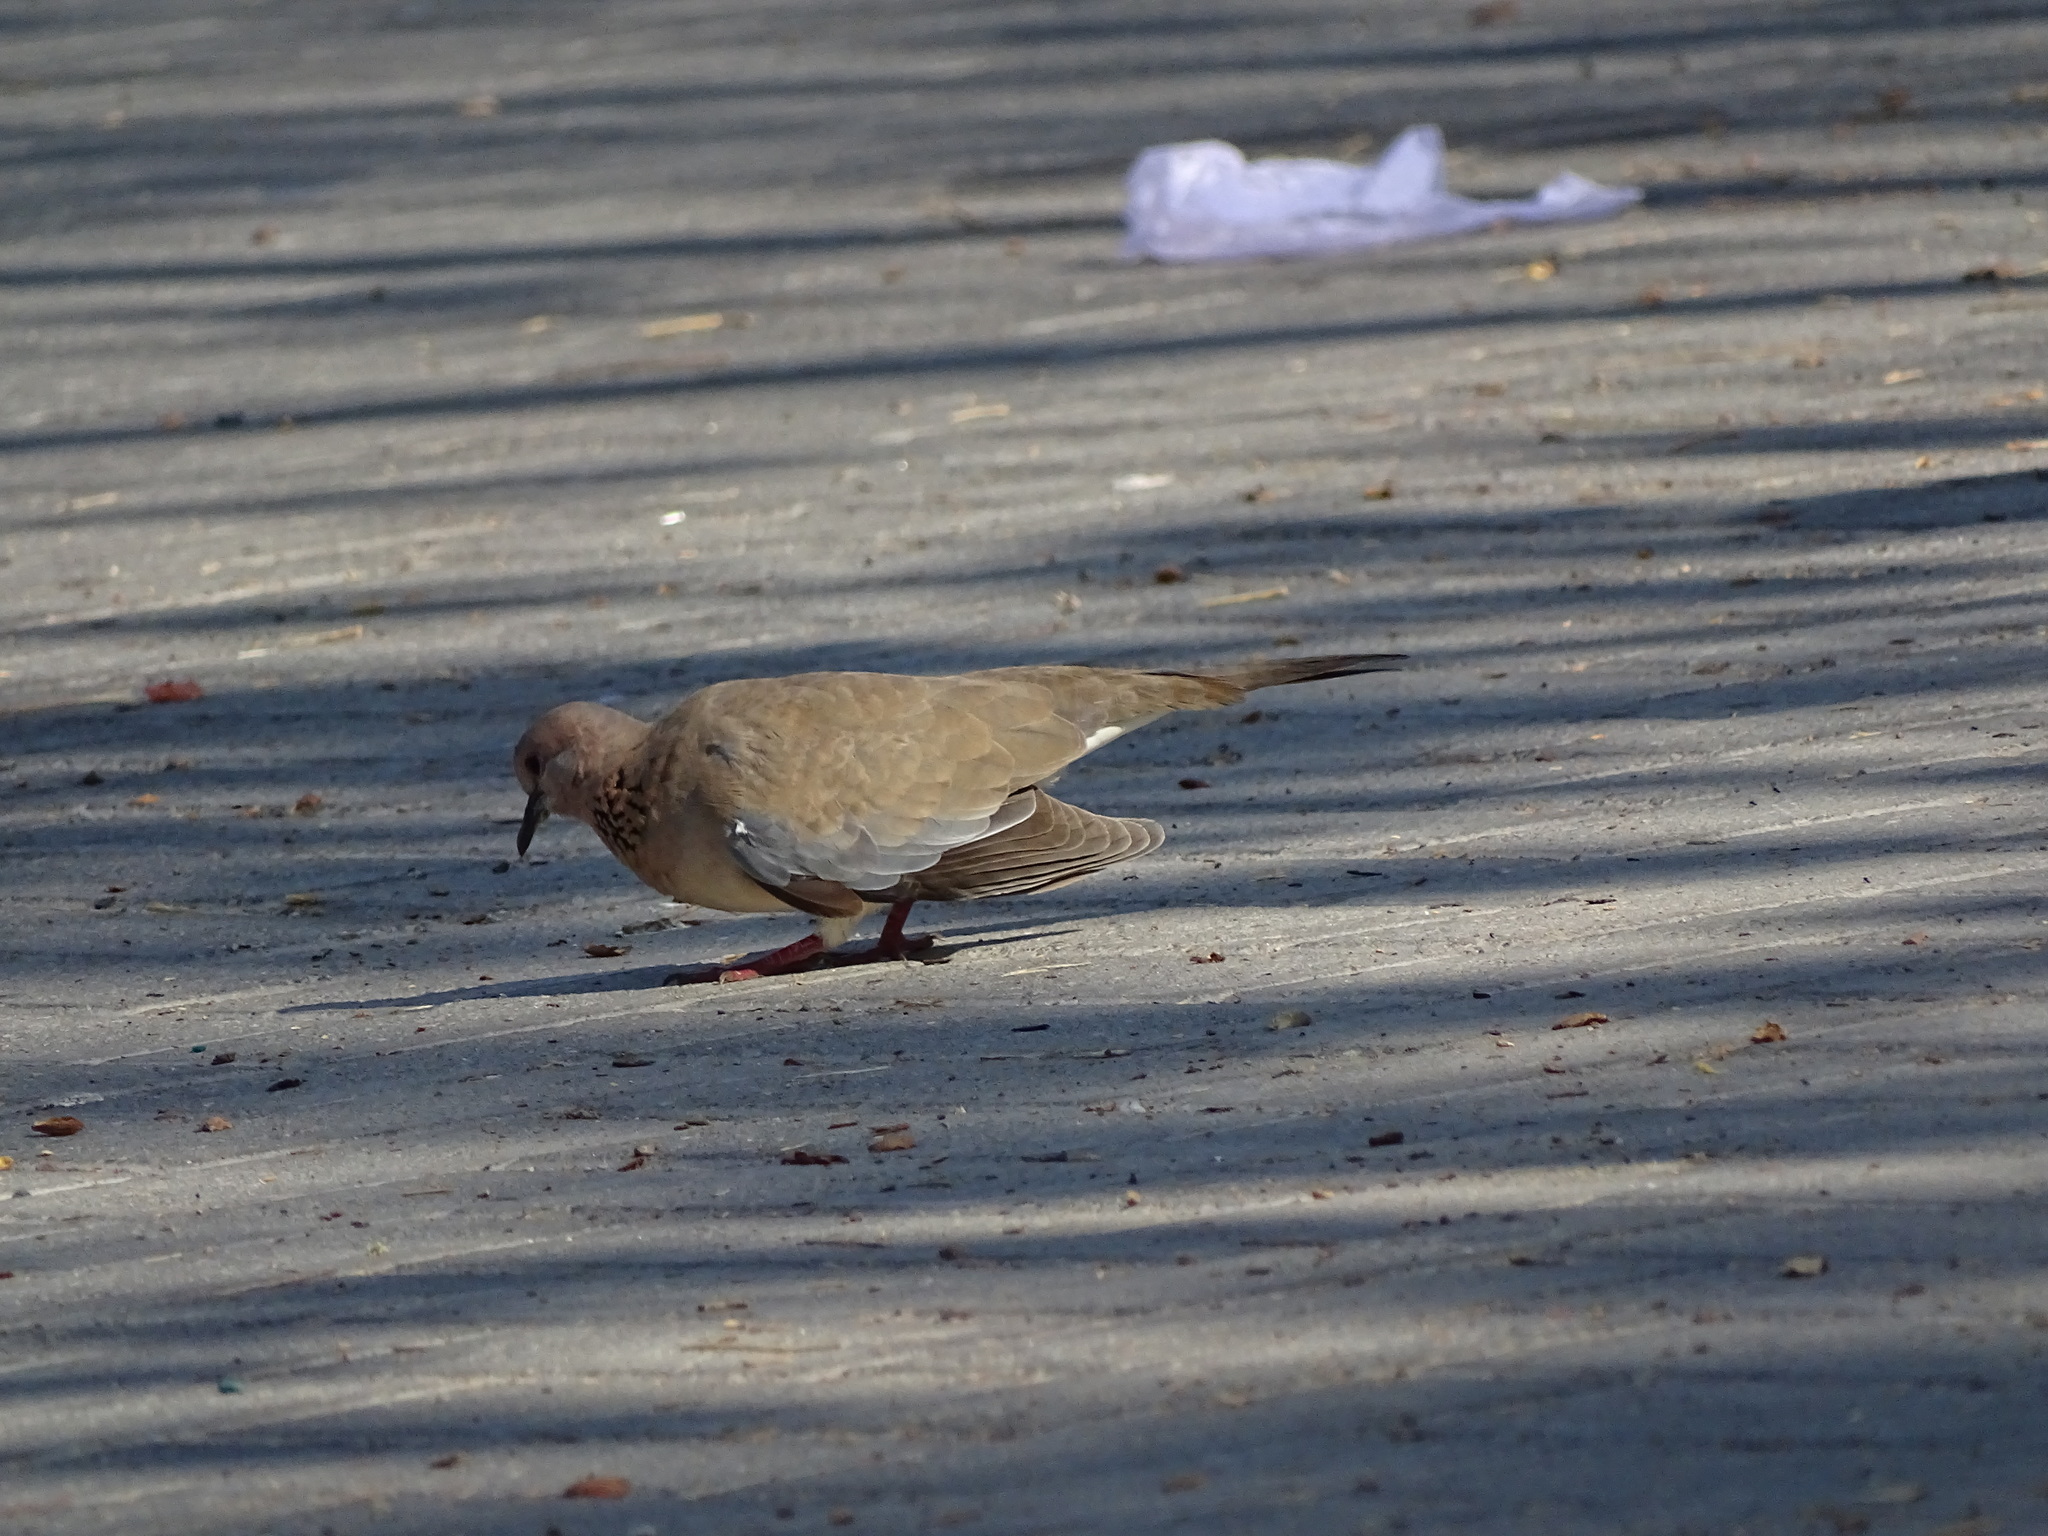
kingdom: Animalia
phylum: Chordata
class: Aves
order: Columbiformes
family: Columbidae
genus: Spilopelia
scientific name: Spilopelia senegalensis
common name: Laughing dove
